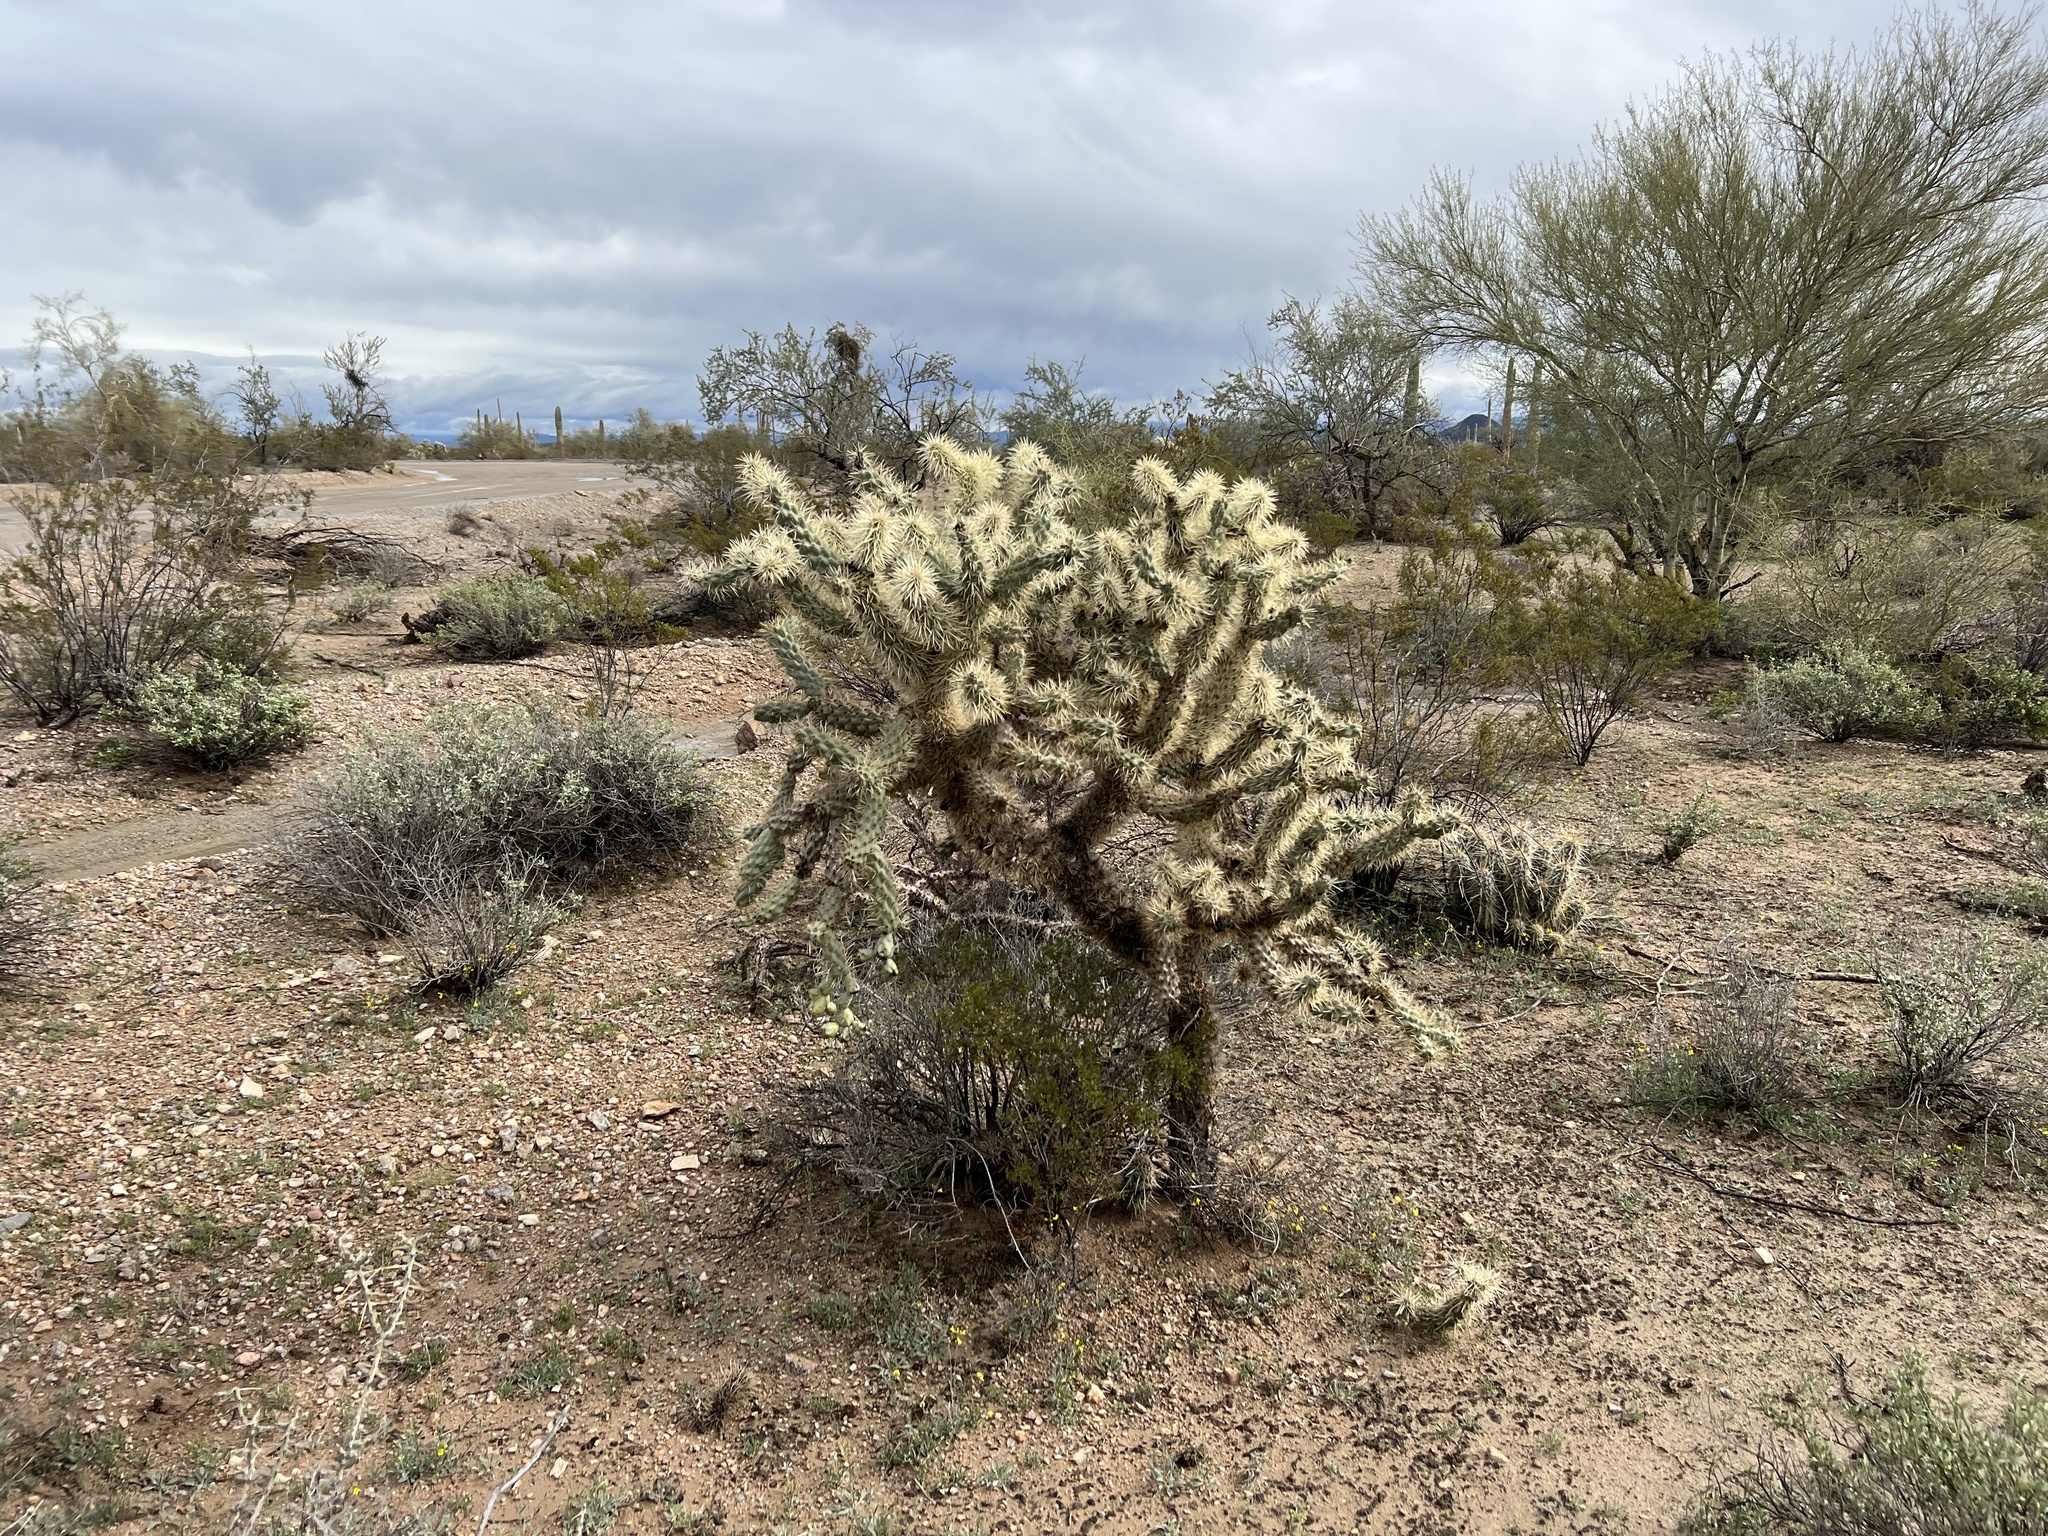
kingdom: Plantae
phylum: Tracheophyta
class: Magnoliopsida
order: Caryophyllales
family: Cactaceae
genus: Cylindropuntia
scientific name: Cylindropuntia fulgida
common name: Jumping cholla
